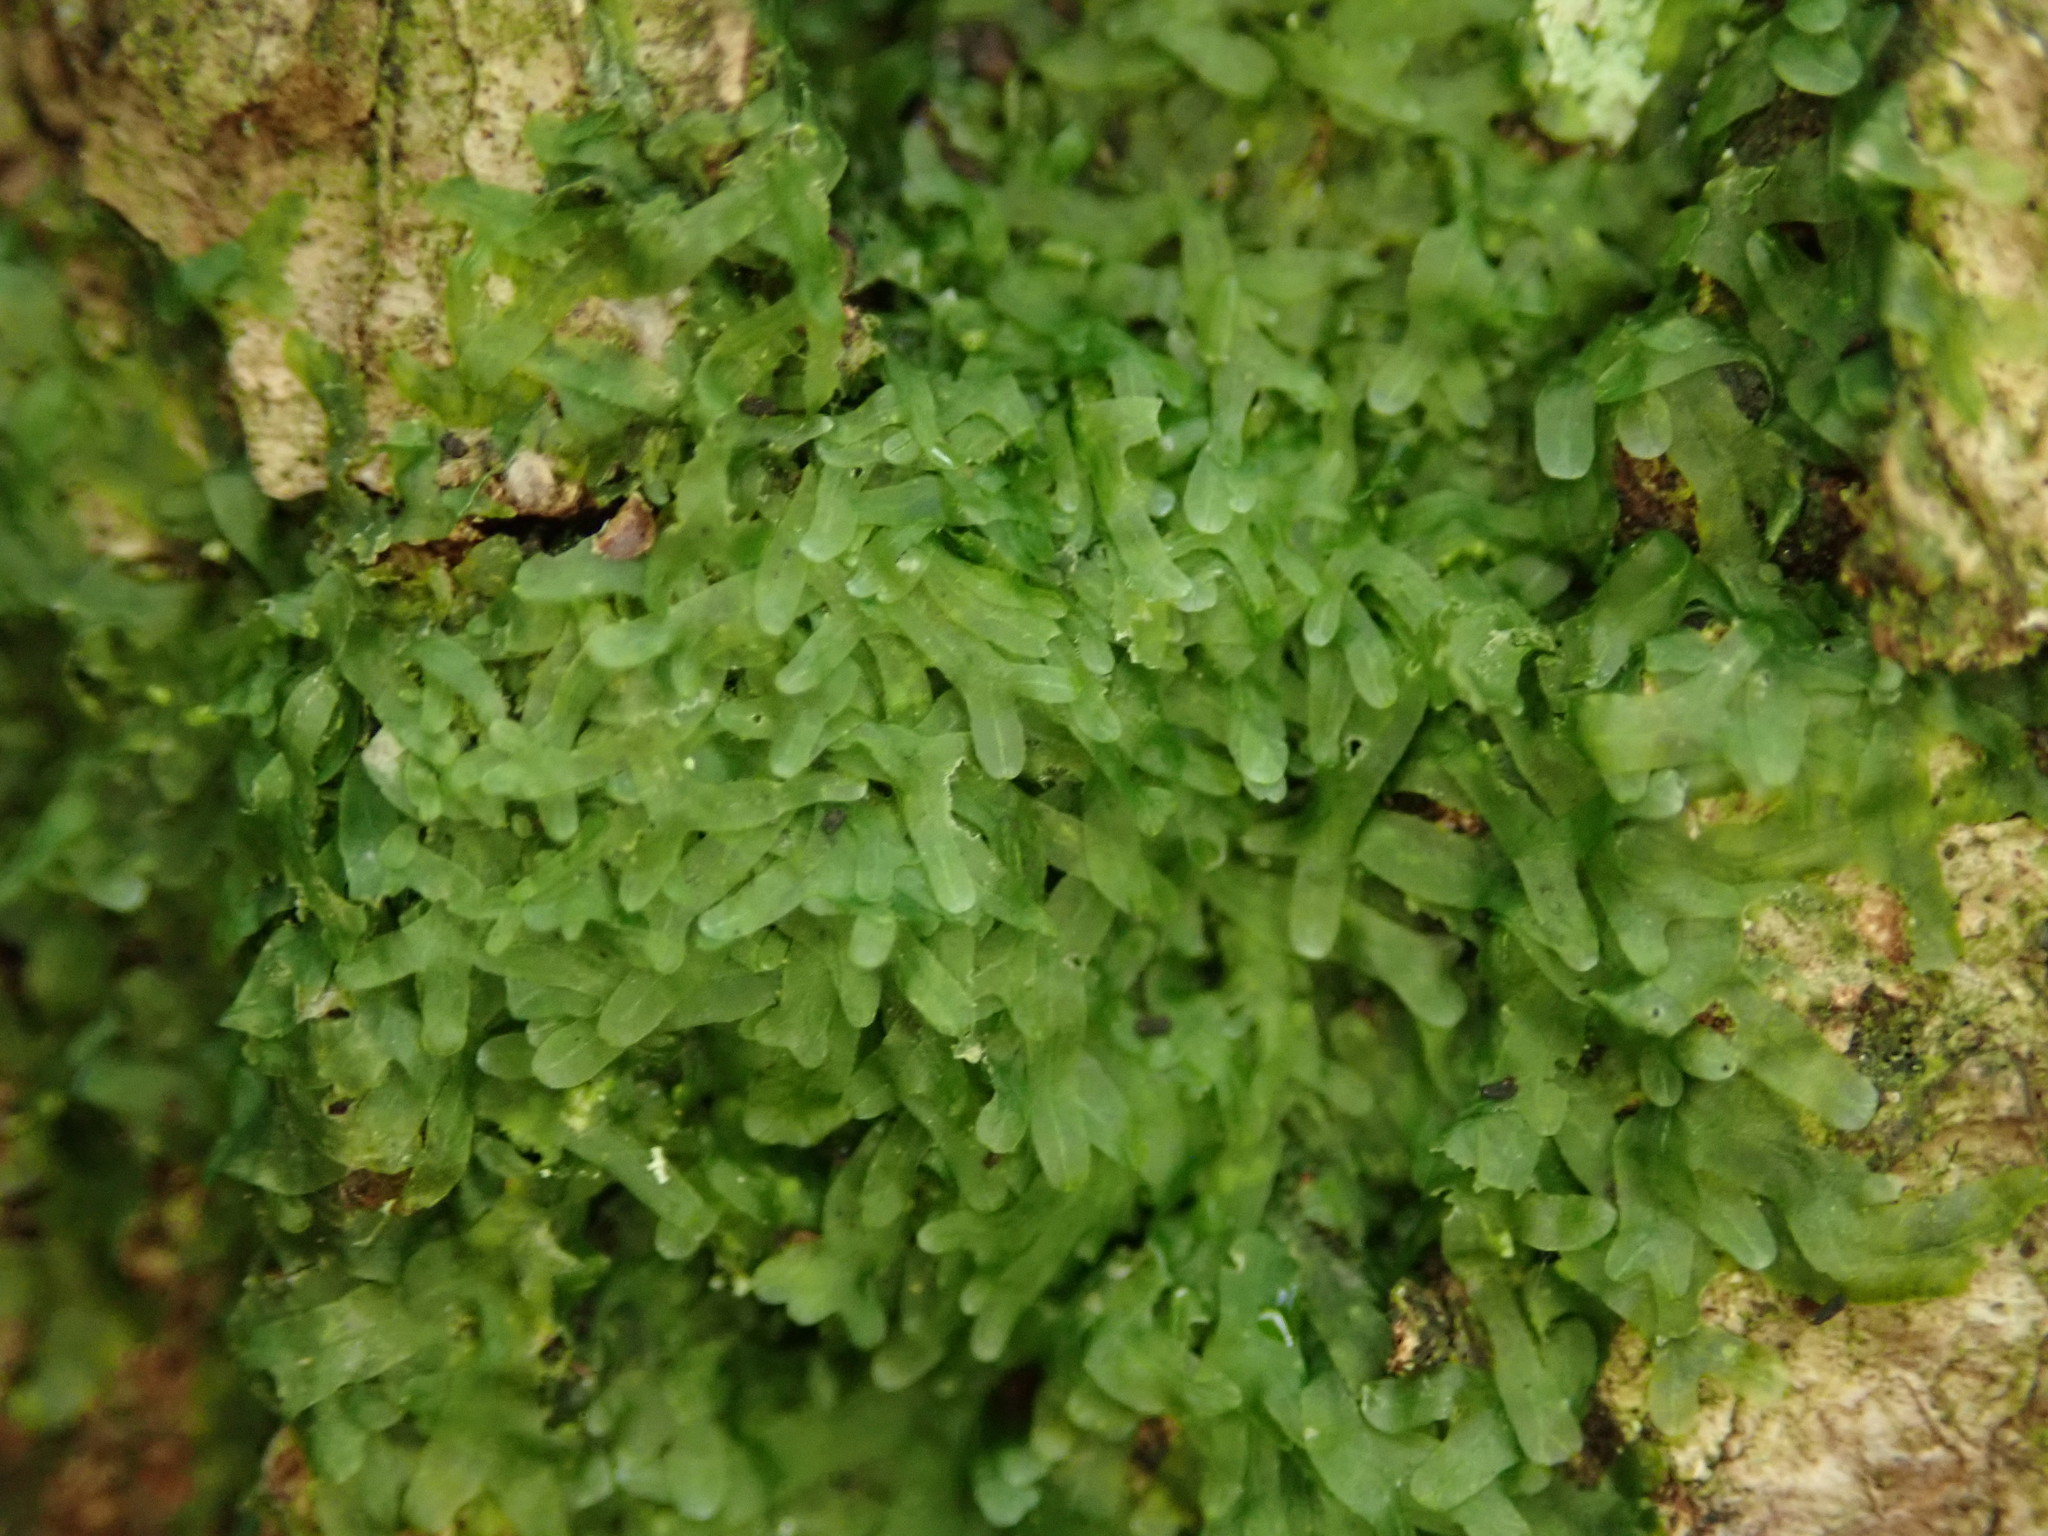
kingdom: Plantae
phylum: Marchantiophyta
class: Jungermanniopsida
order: Metzgeriales
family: Metzgeriaceae
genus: Metzgeria
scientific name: Metzgeria furcata
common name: Forked veilwort
